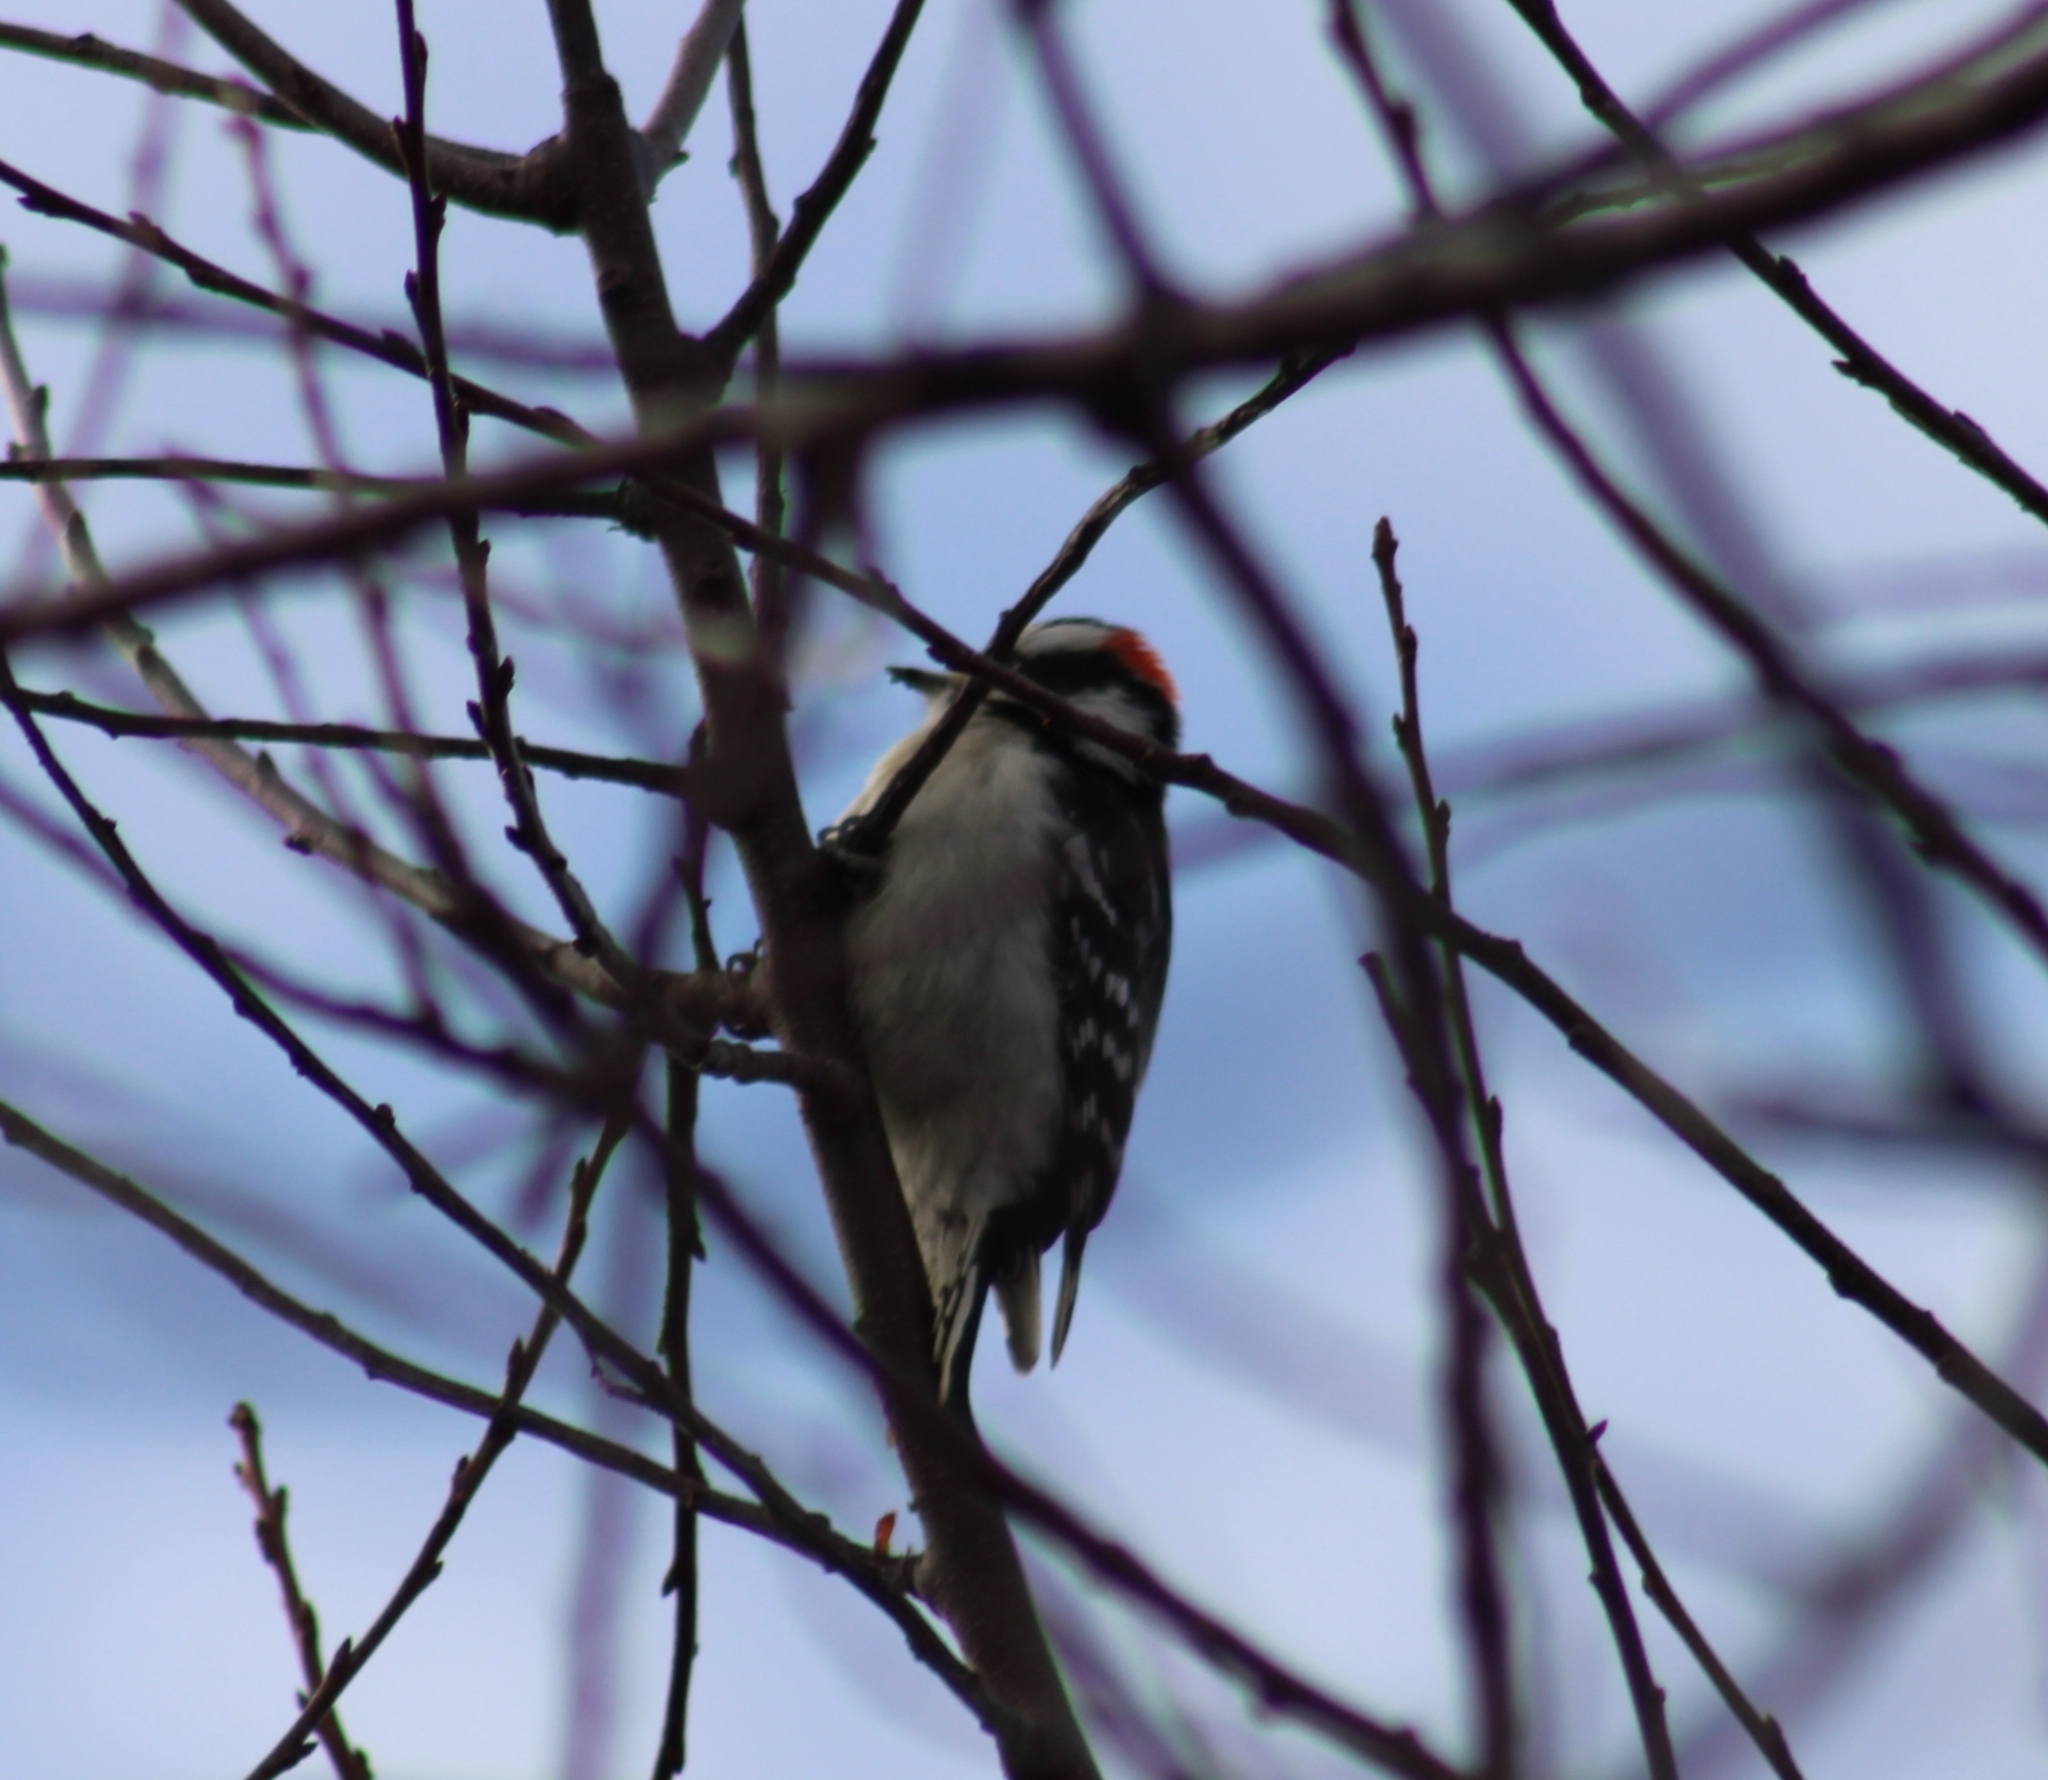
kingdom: Animalia
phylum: Chordata
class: Aves
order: Piciformes
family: Picidae
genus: Dryobates
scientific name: Dryobates pubescens
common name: Downy woodpecker
